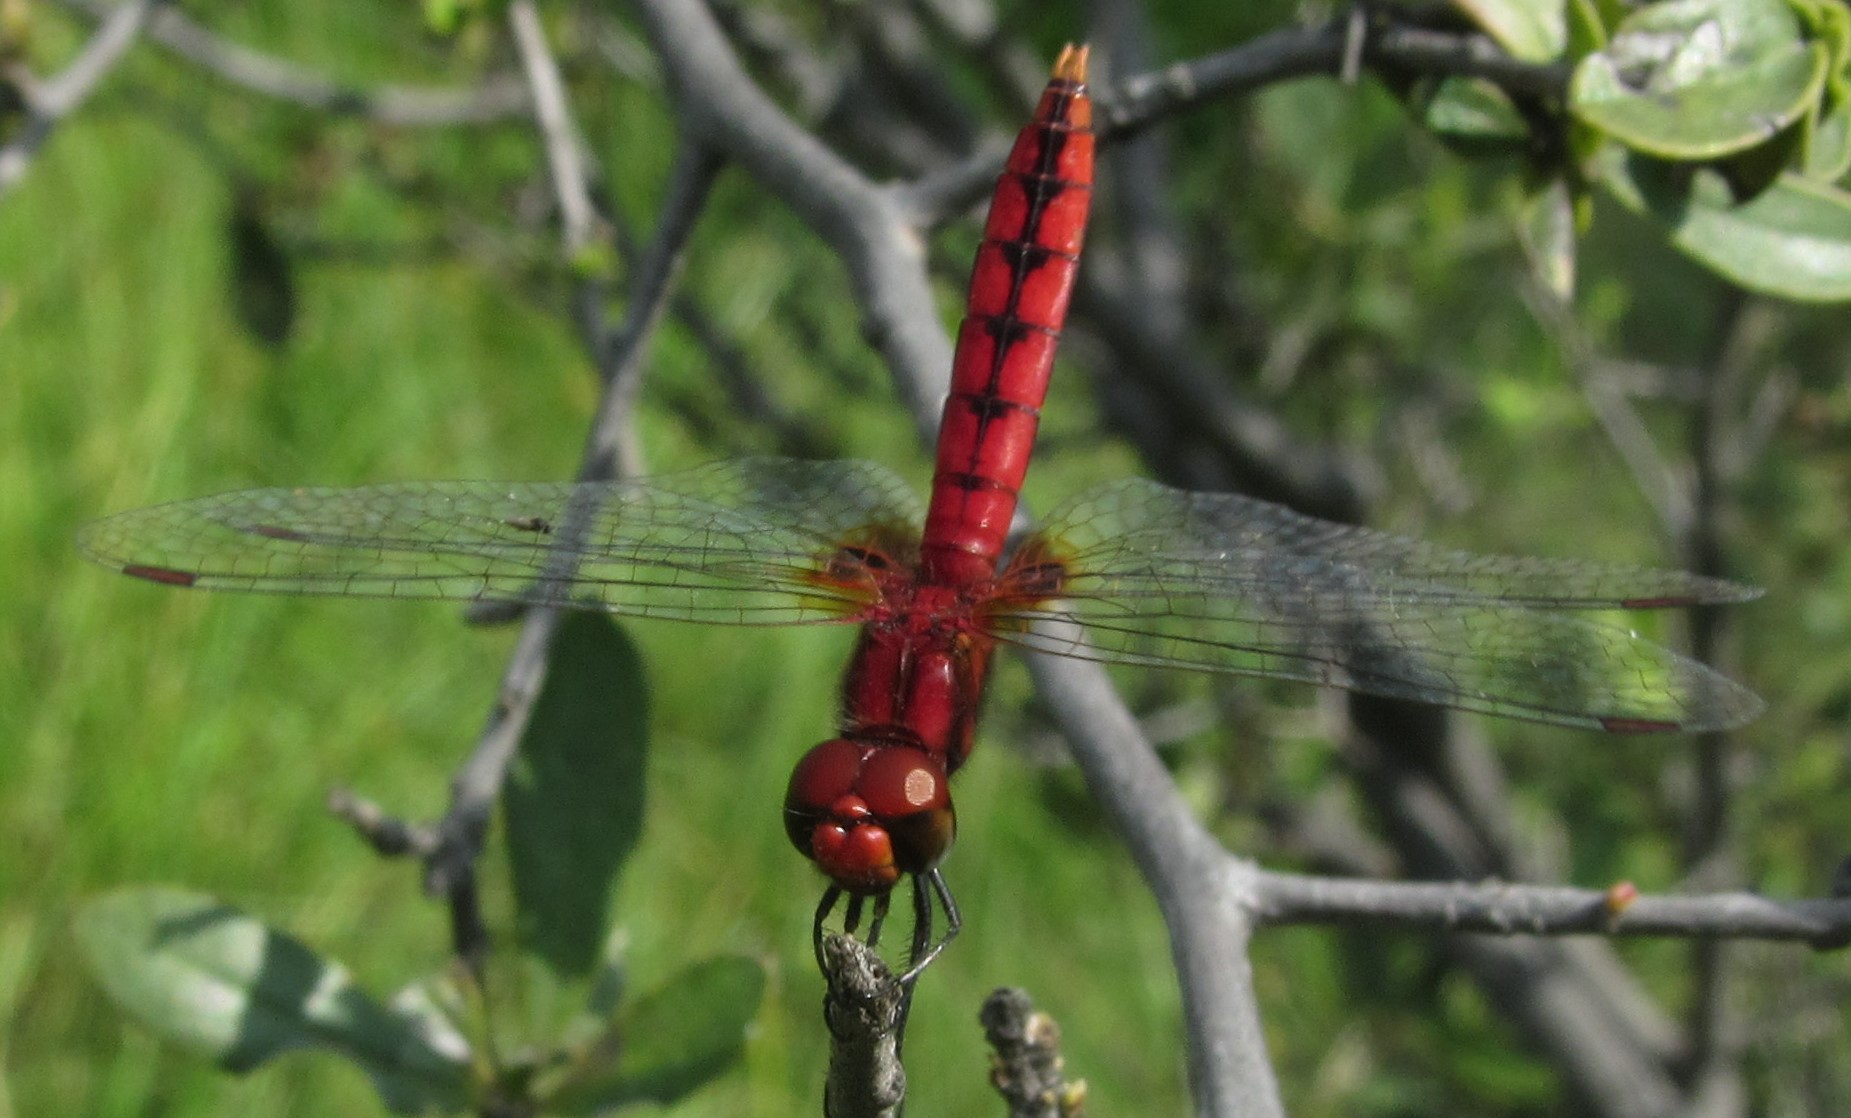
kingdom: Animalia
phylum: Arthropoda
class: Insecta
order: Odonata
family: Libellulidae
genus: Aethriamanta
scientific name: Aethriamanta rezia
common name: Pygmy basker
